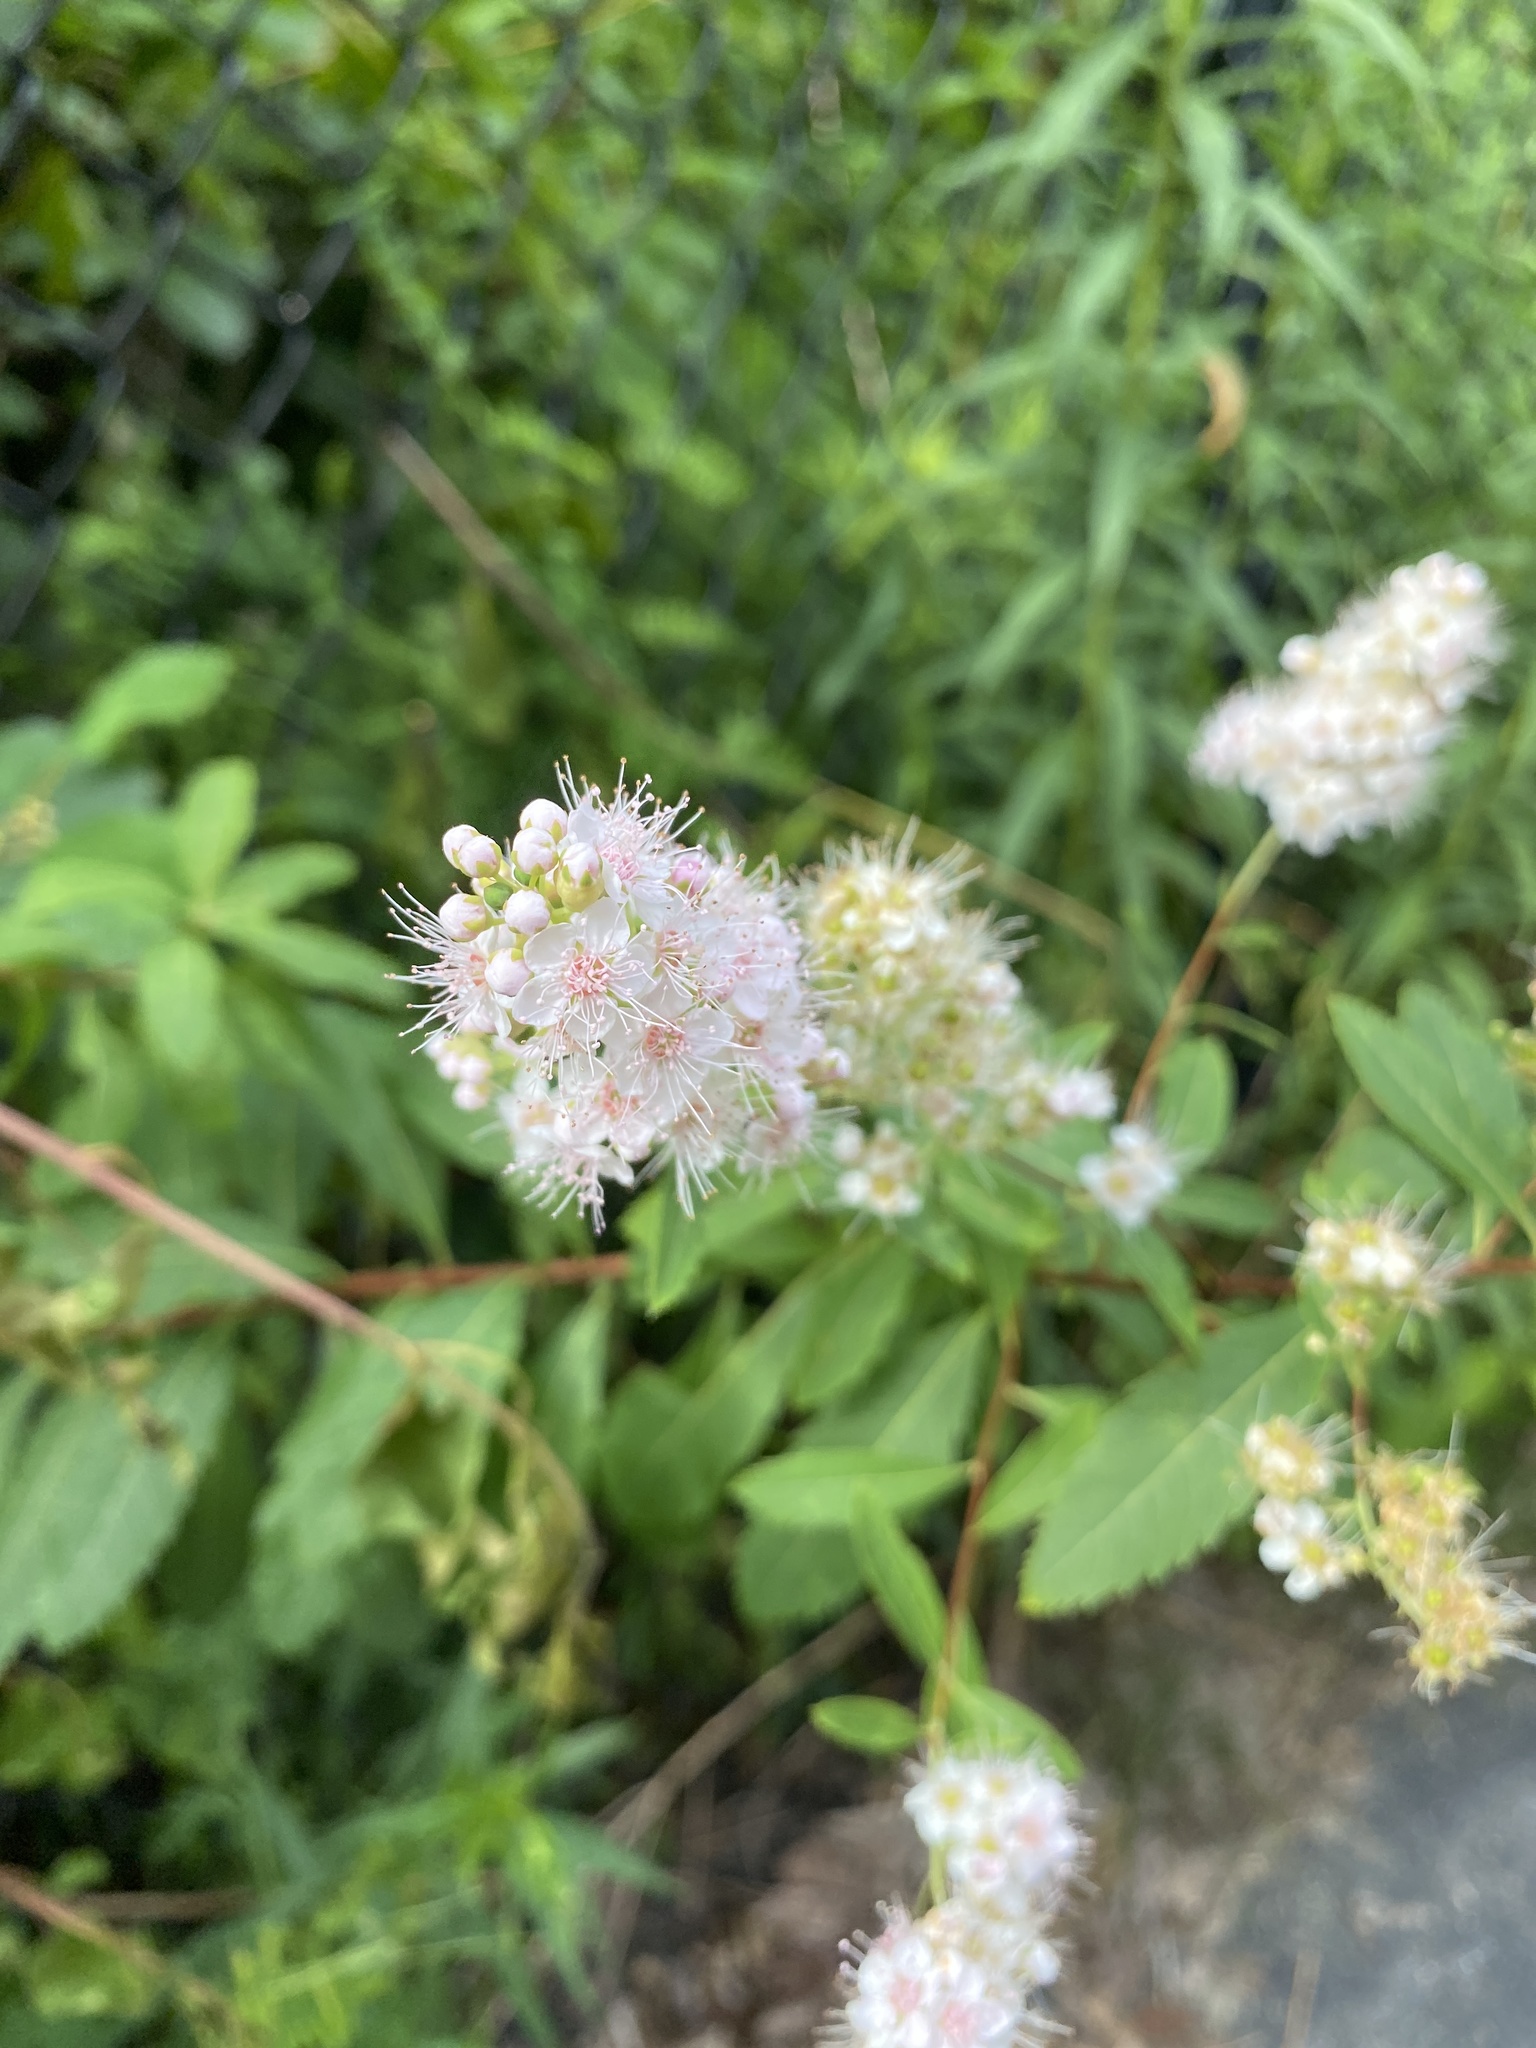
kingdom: Plantae
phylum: Tracheophyta
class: Magnoliopsida
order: Rosales
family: Rosaceae
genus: Spiraea
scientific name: Spiraea alba
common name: Pale bridewort
